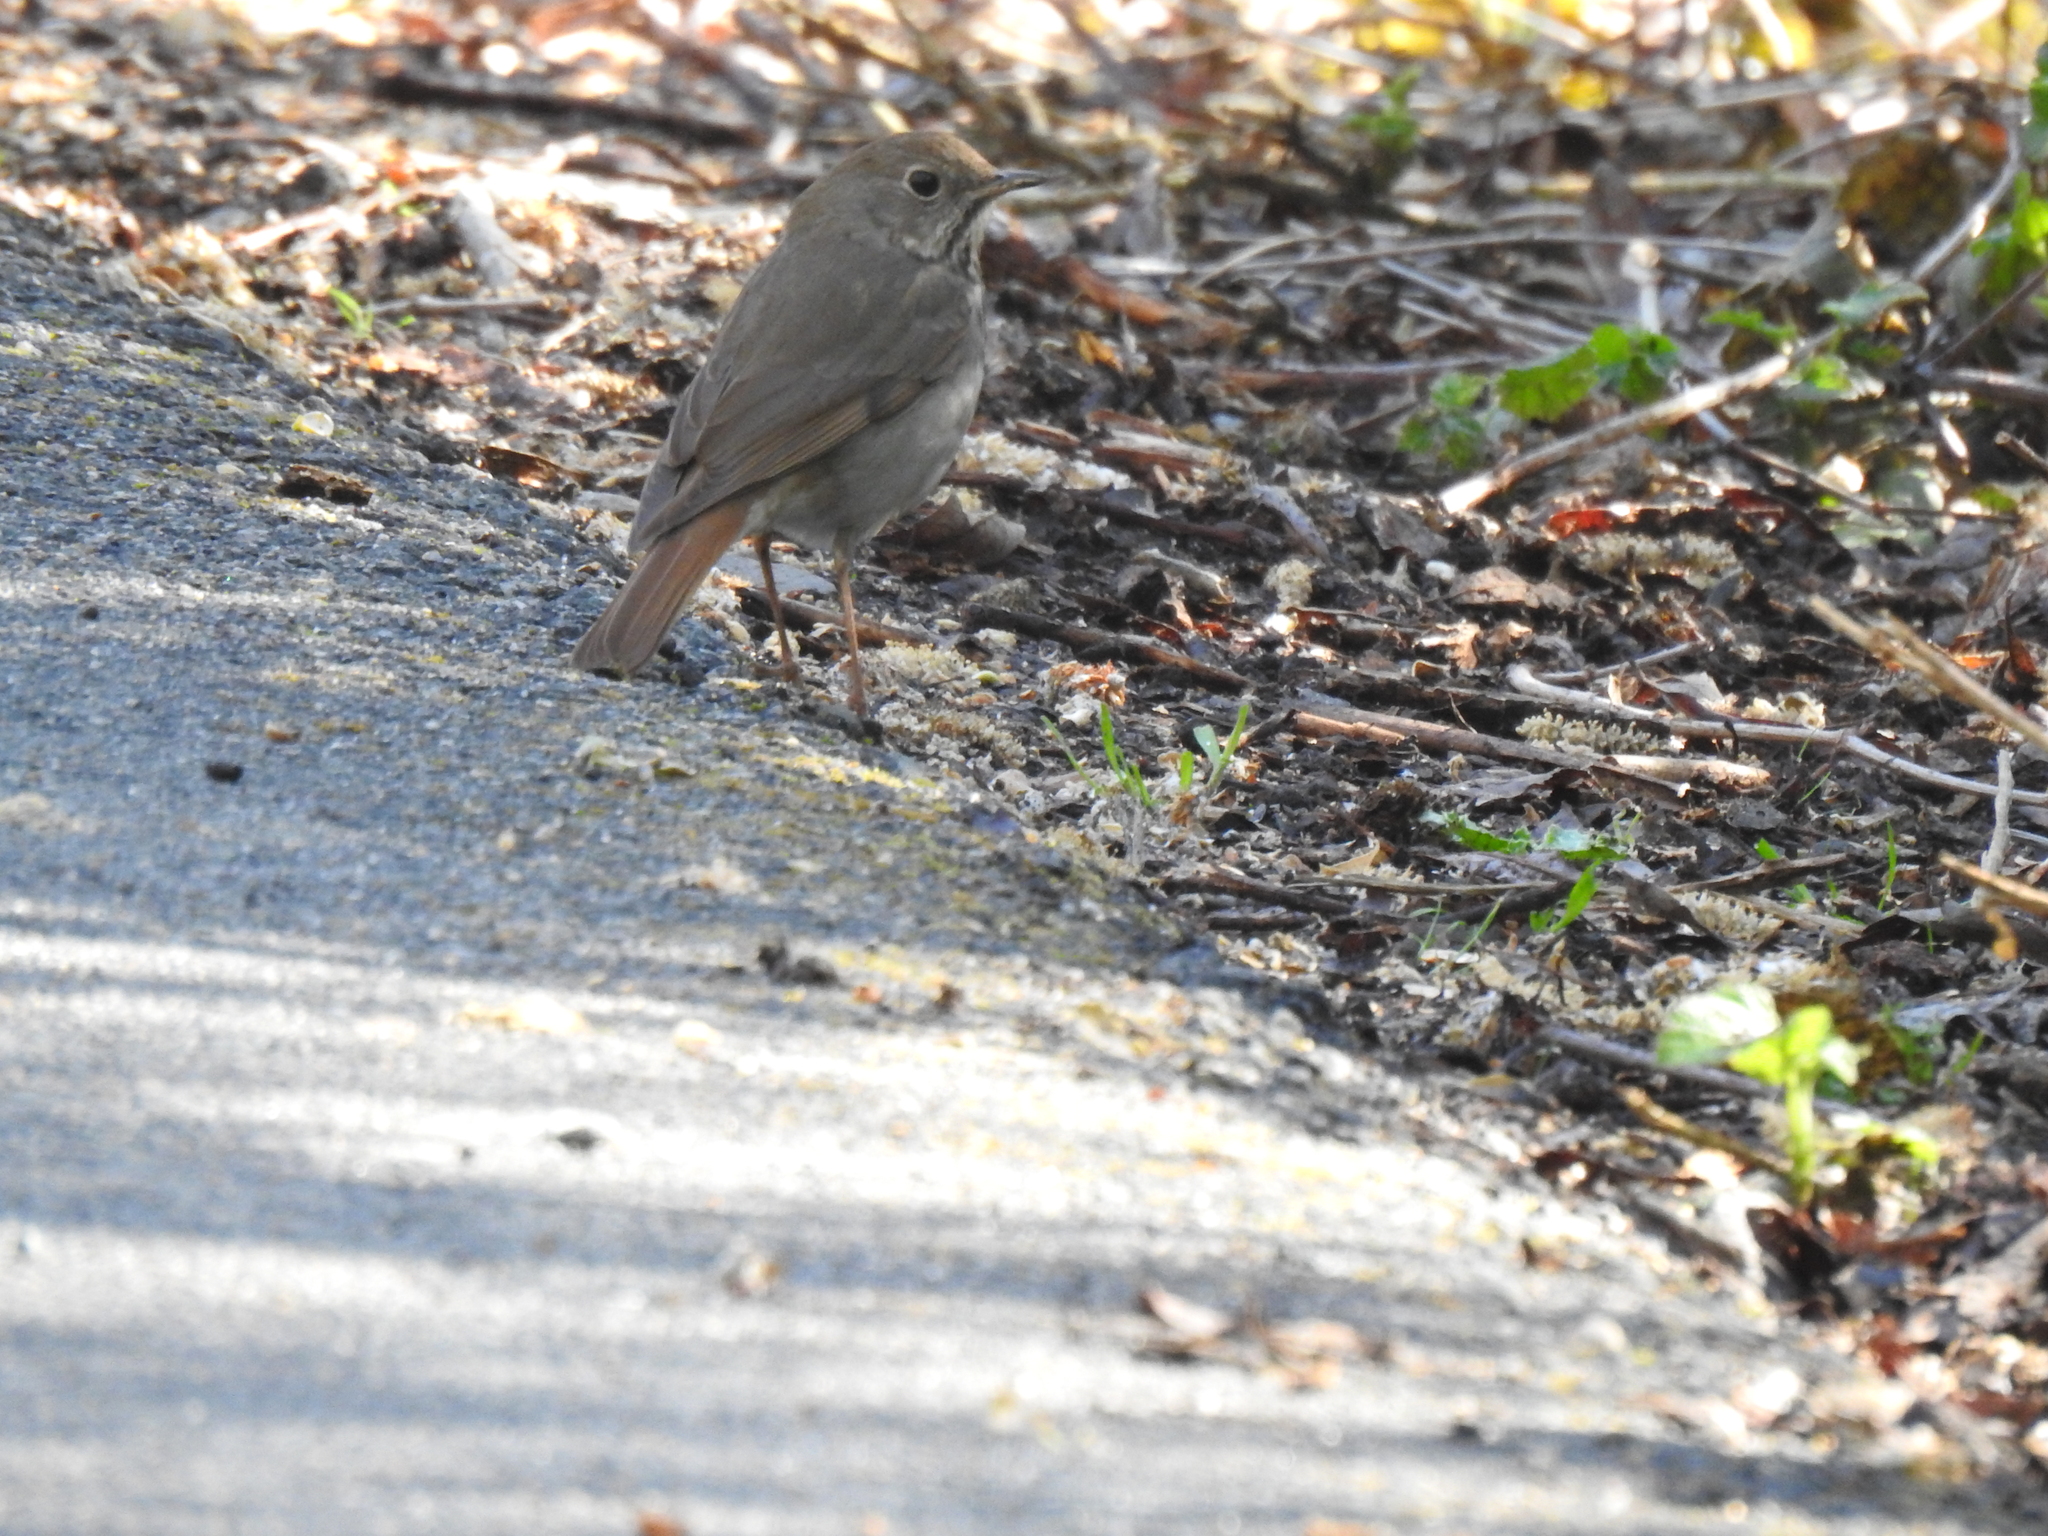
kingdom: Animalia
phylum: Chordata
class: Aves
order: Passeriformes
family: Turdidae
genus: Catharus
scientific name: Catharus guttatus
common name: Hermit thrush
